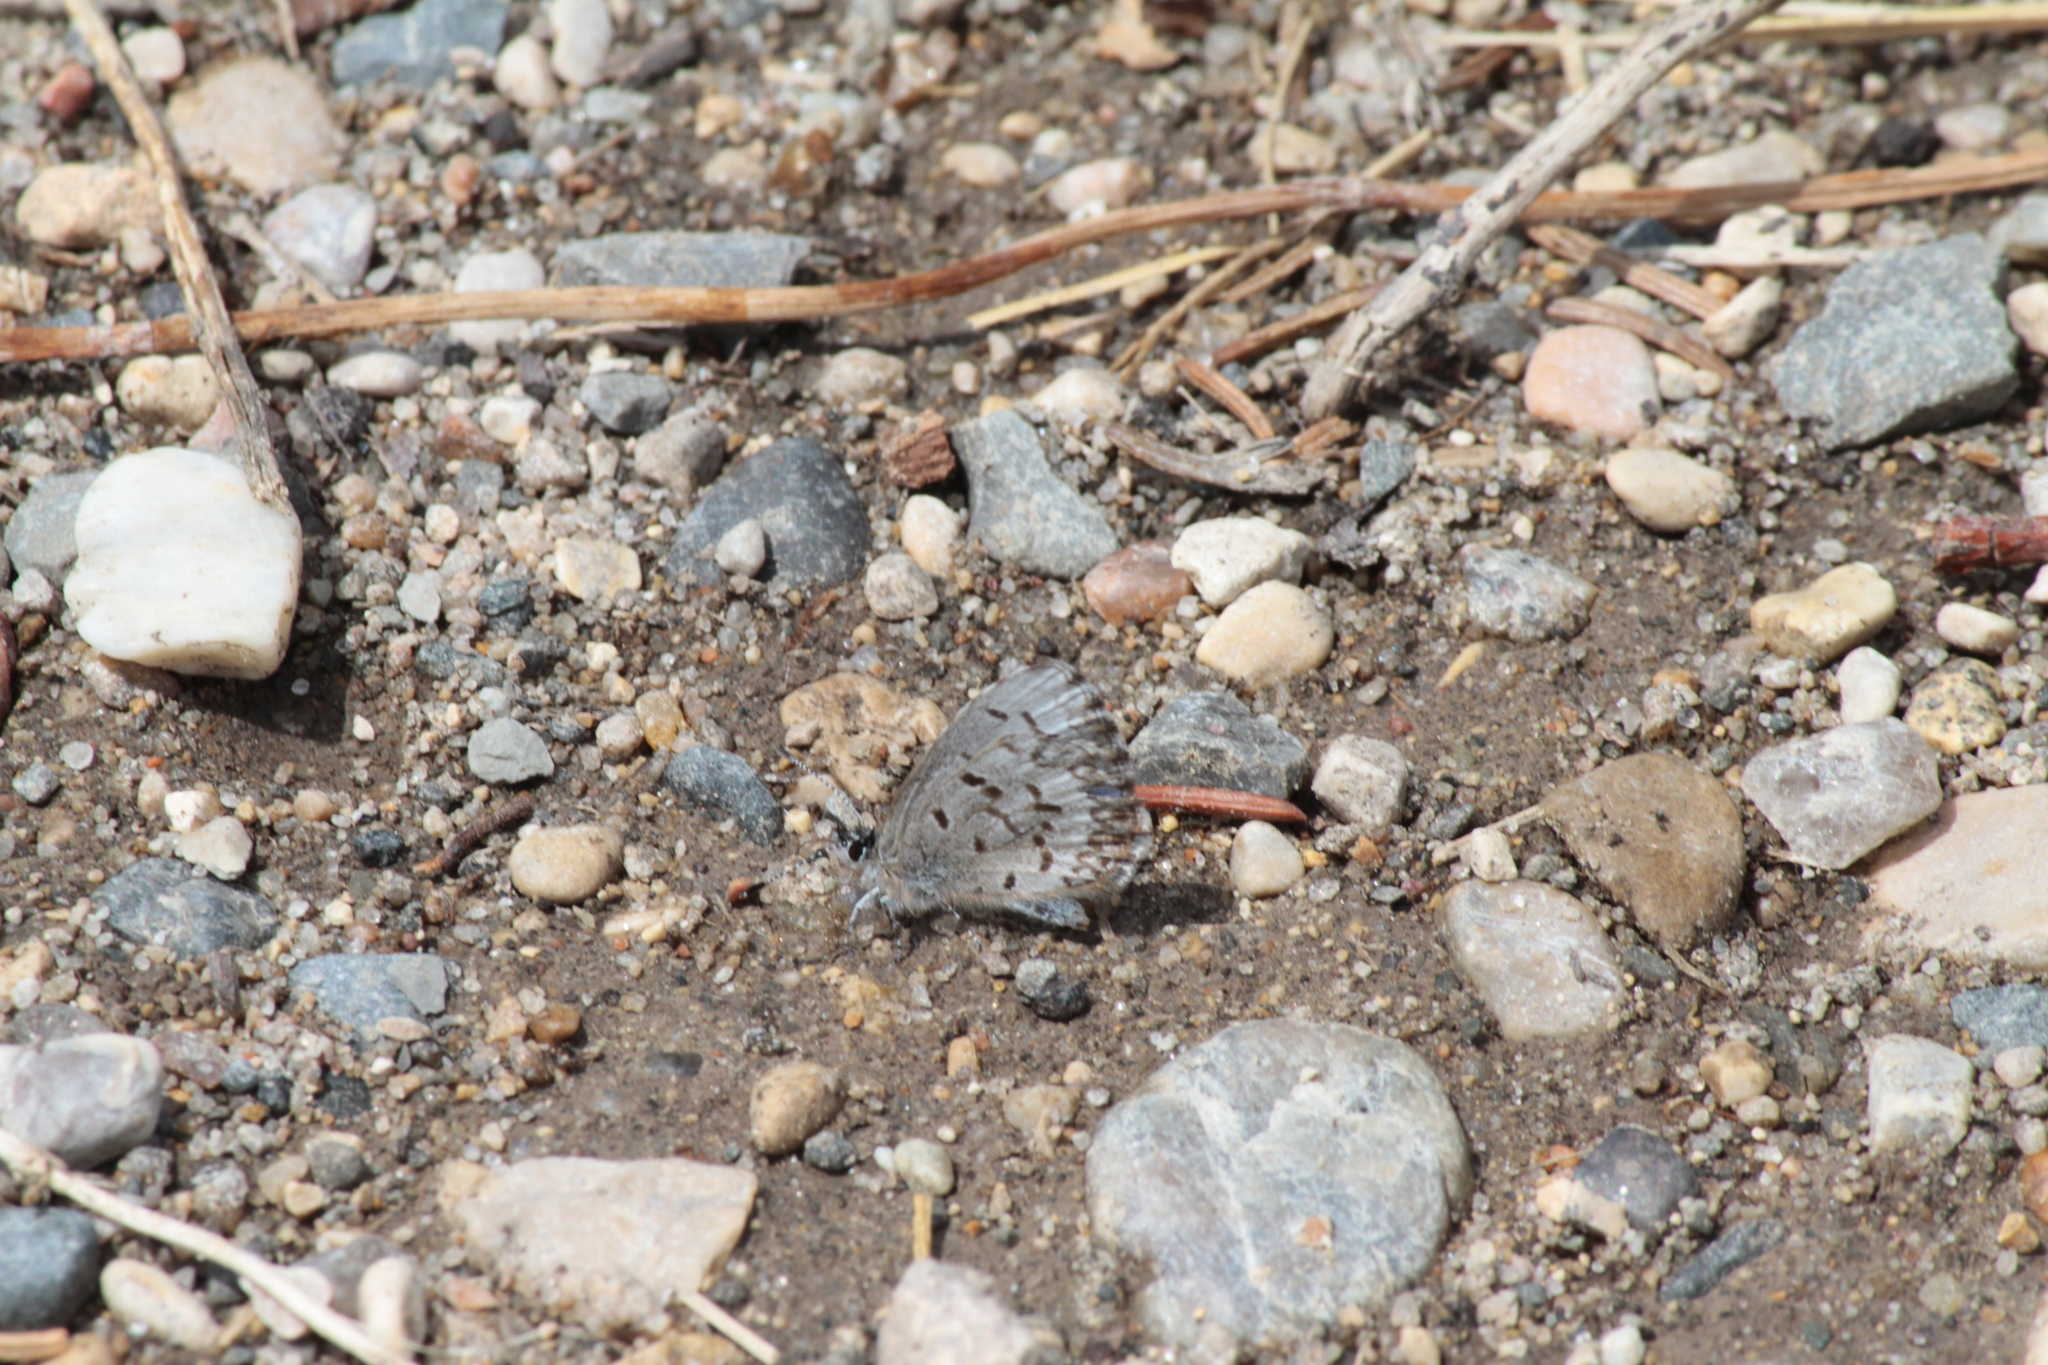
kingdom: Animalia
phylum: Arthropoda
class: Insecta
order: Lepidoptera
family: Lycaenidae
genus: Celastrina
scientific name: Celastrina lucia
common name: Lucia azure
